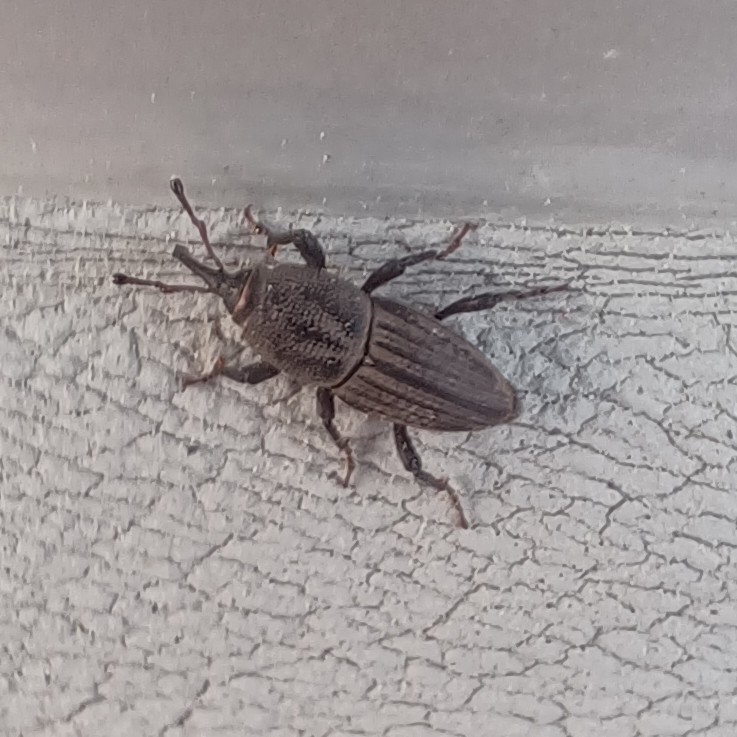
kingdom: Animalia
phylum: Arthropoda
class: Insecta
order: Coleoptera
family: Dryophthoridae
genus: Sphenophorus
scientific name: Sphenophorus interstitialis
